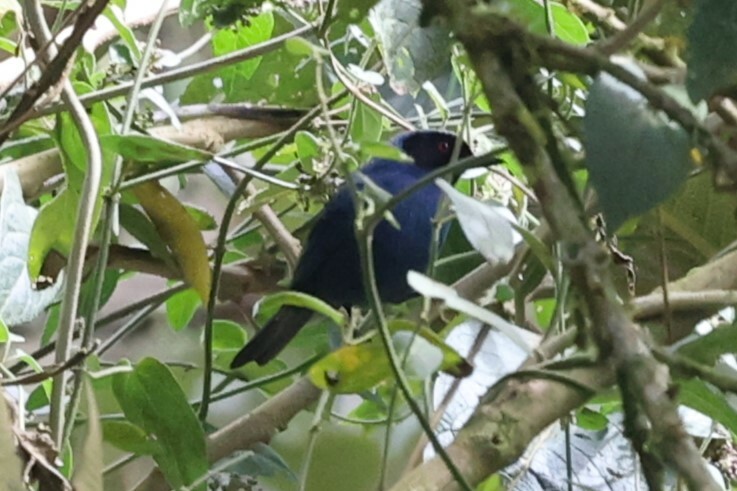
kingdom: Animalia
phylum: Chordata
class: Aves
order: Passeriformes
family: Thraupidae
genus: Diglossa
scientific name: Diglossa cyanea
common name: Masked flowerpiercer
